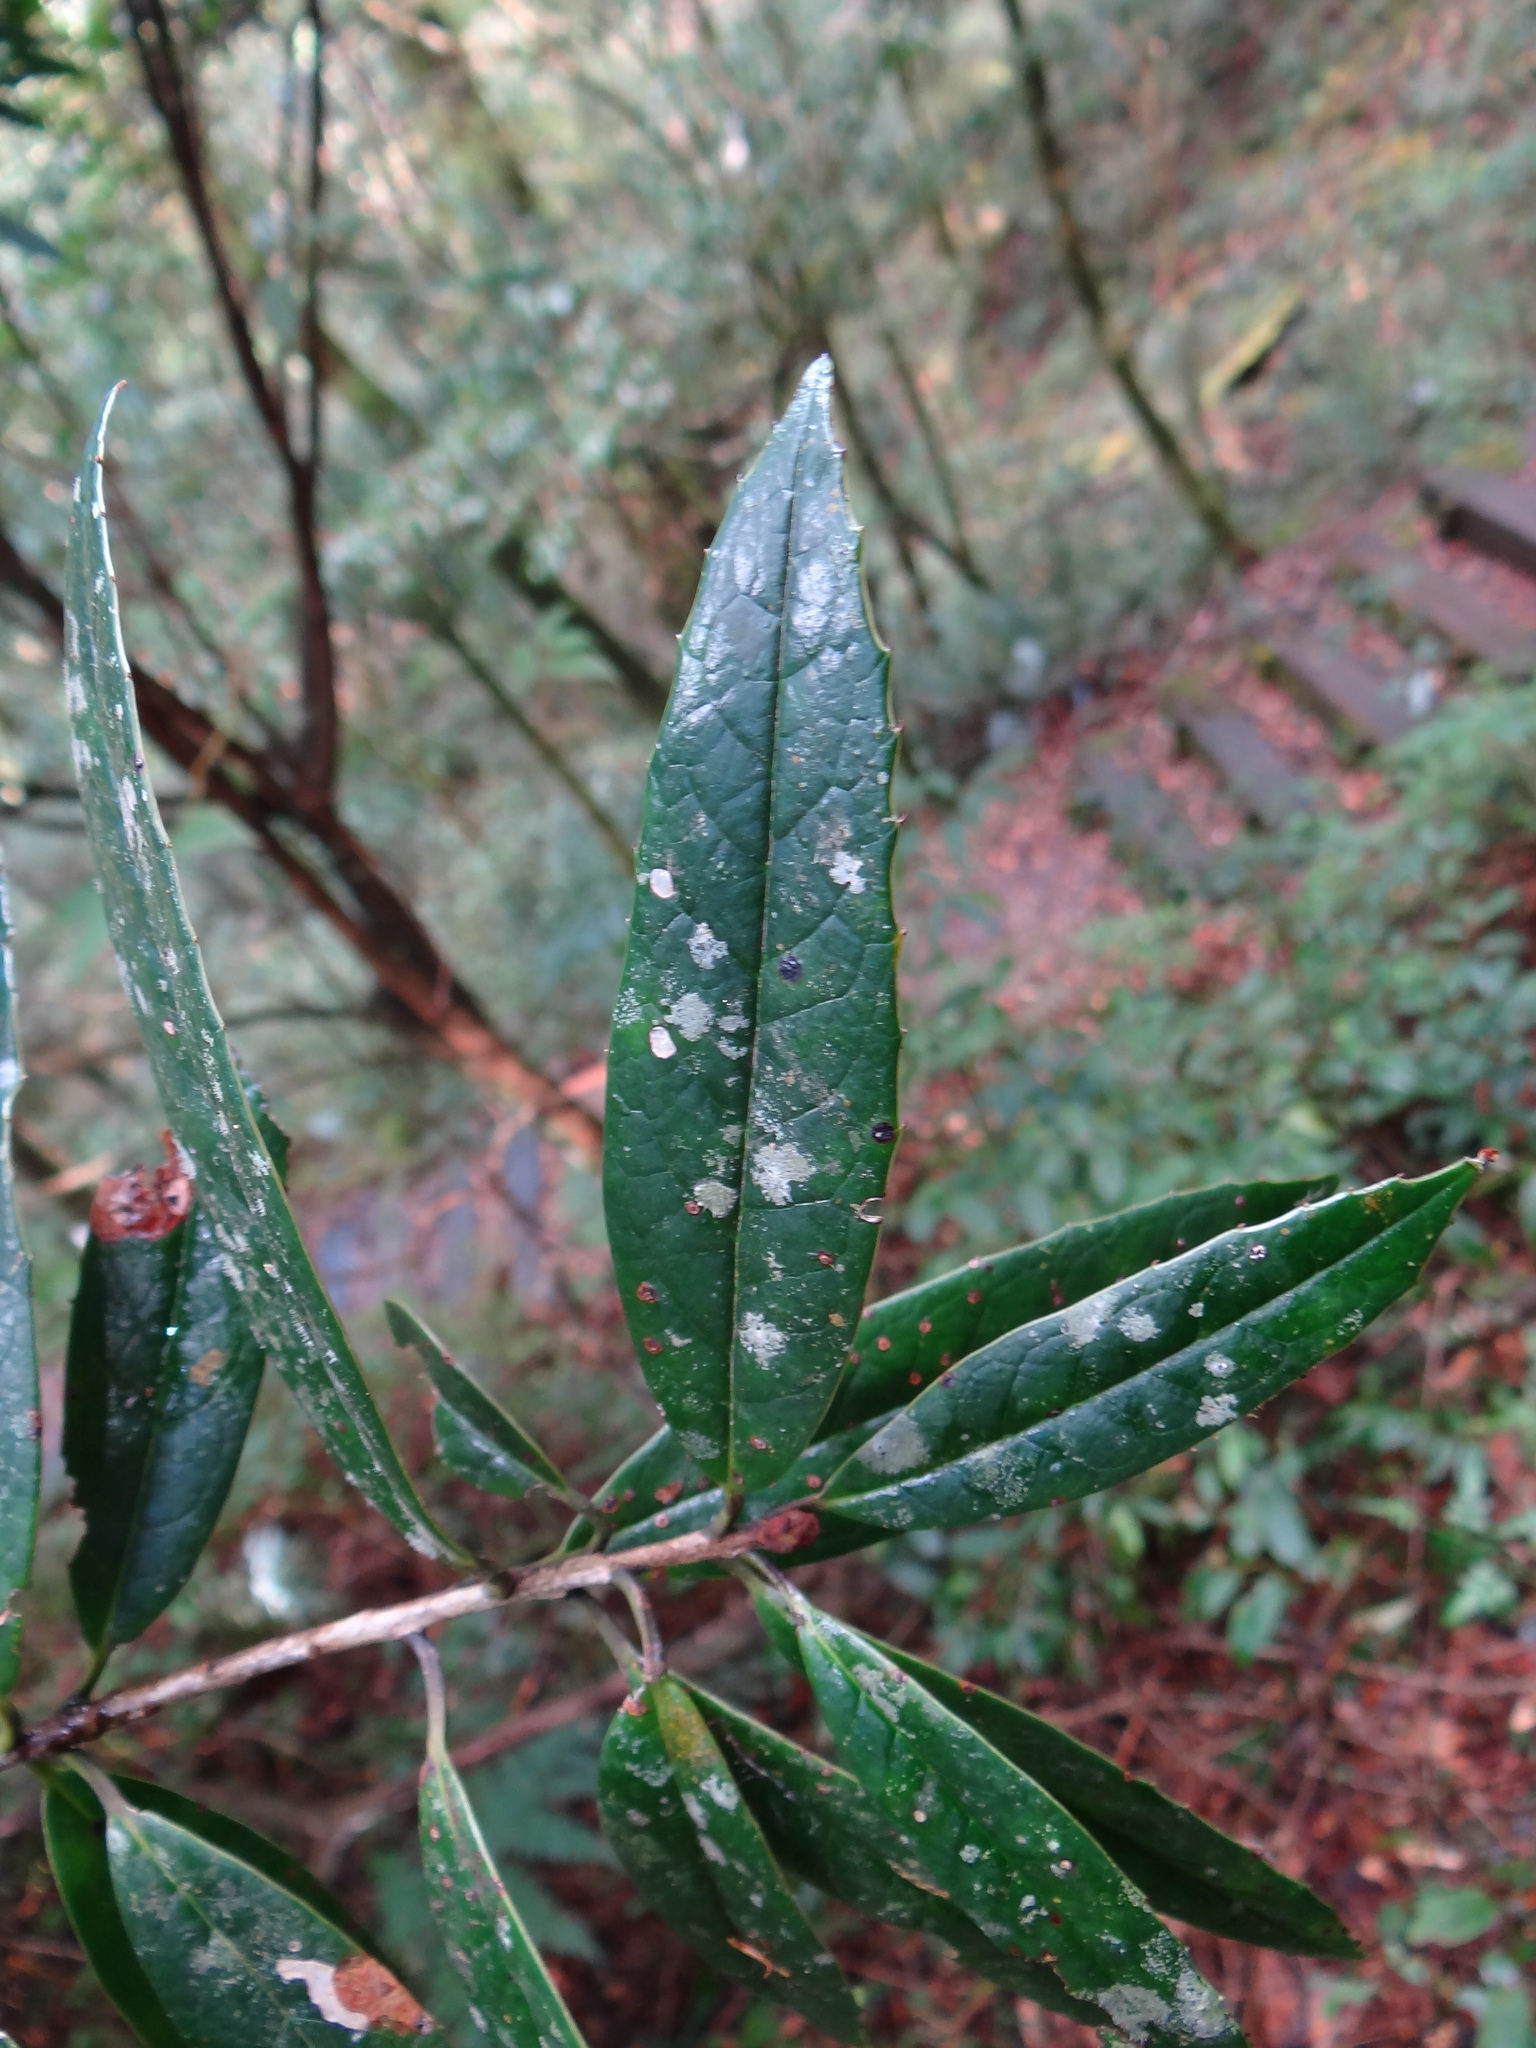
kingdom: Plantae
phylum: Tracheophyta
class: Magnoliopsida
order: Ericales
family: Symplocaceae
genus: Symplocos
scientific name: Symplocos stellaris
